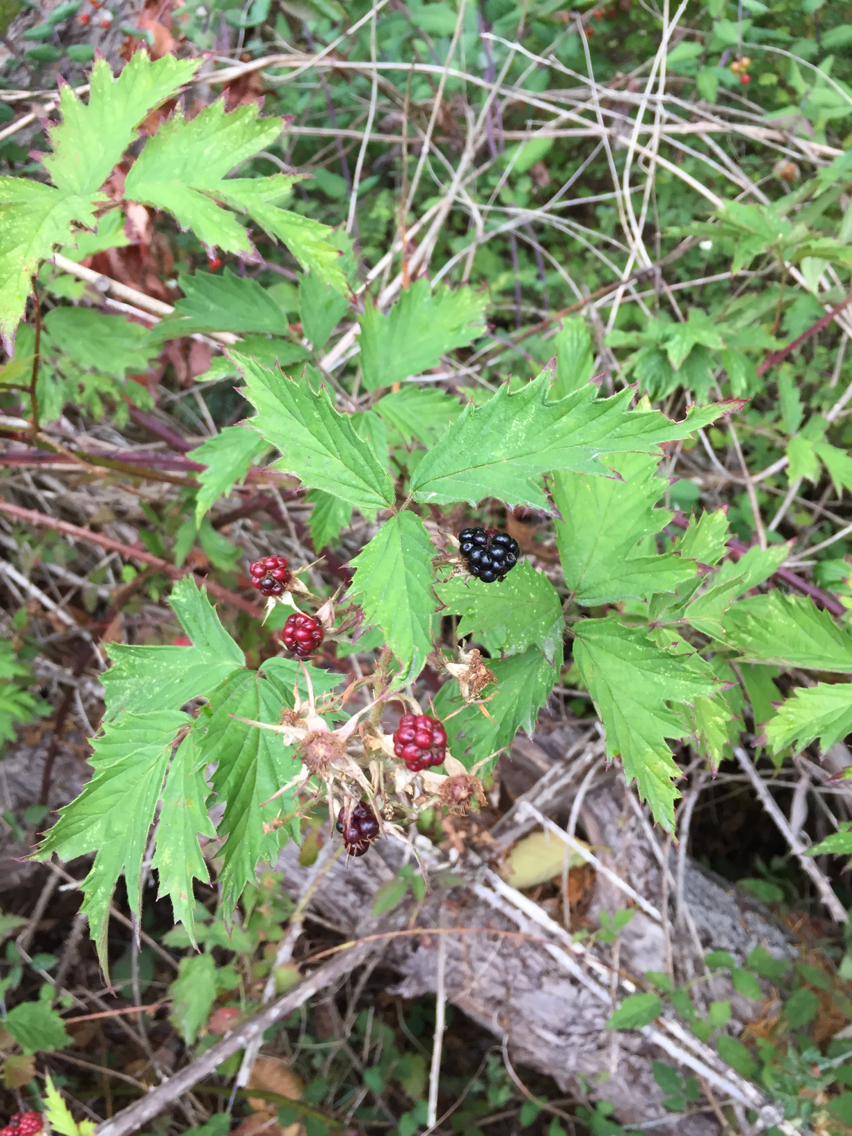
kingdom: Plantae
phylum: Tracheophyta
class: Magnoliopsida
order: Rosales
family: Rosaceae
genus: Rubus
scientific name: Rubus laciniatus
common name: Evergreen blackberry
